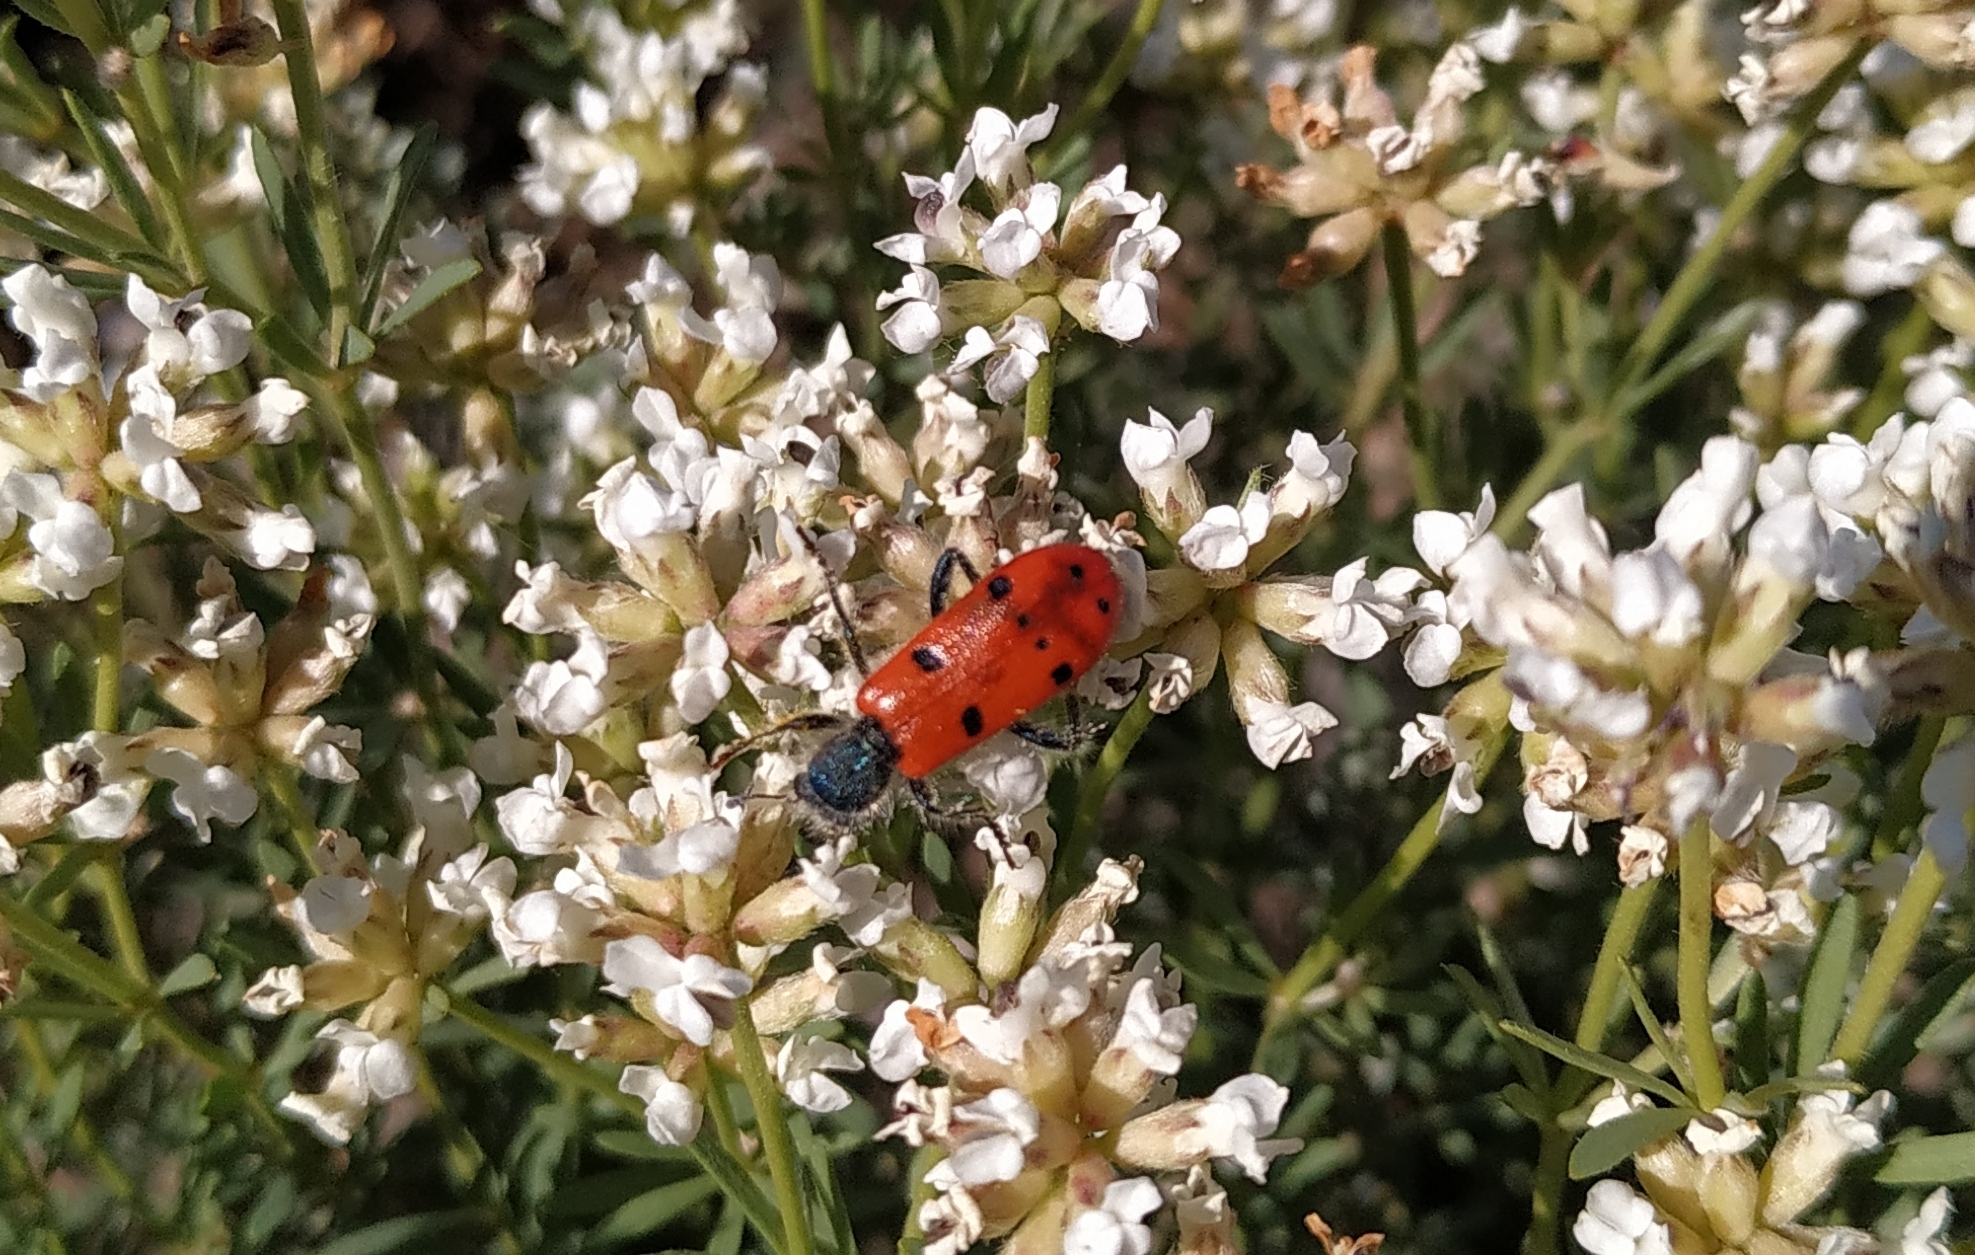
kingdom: Animalia
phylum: Arthropoda
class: Insecta
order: Coleoptera
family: Cleridae
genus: Trichodes
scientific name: Trichodes octopunctatus
